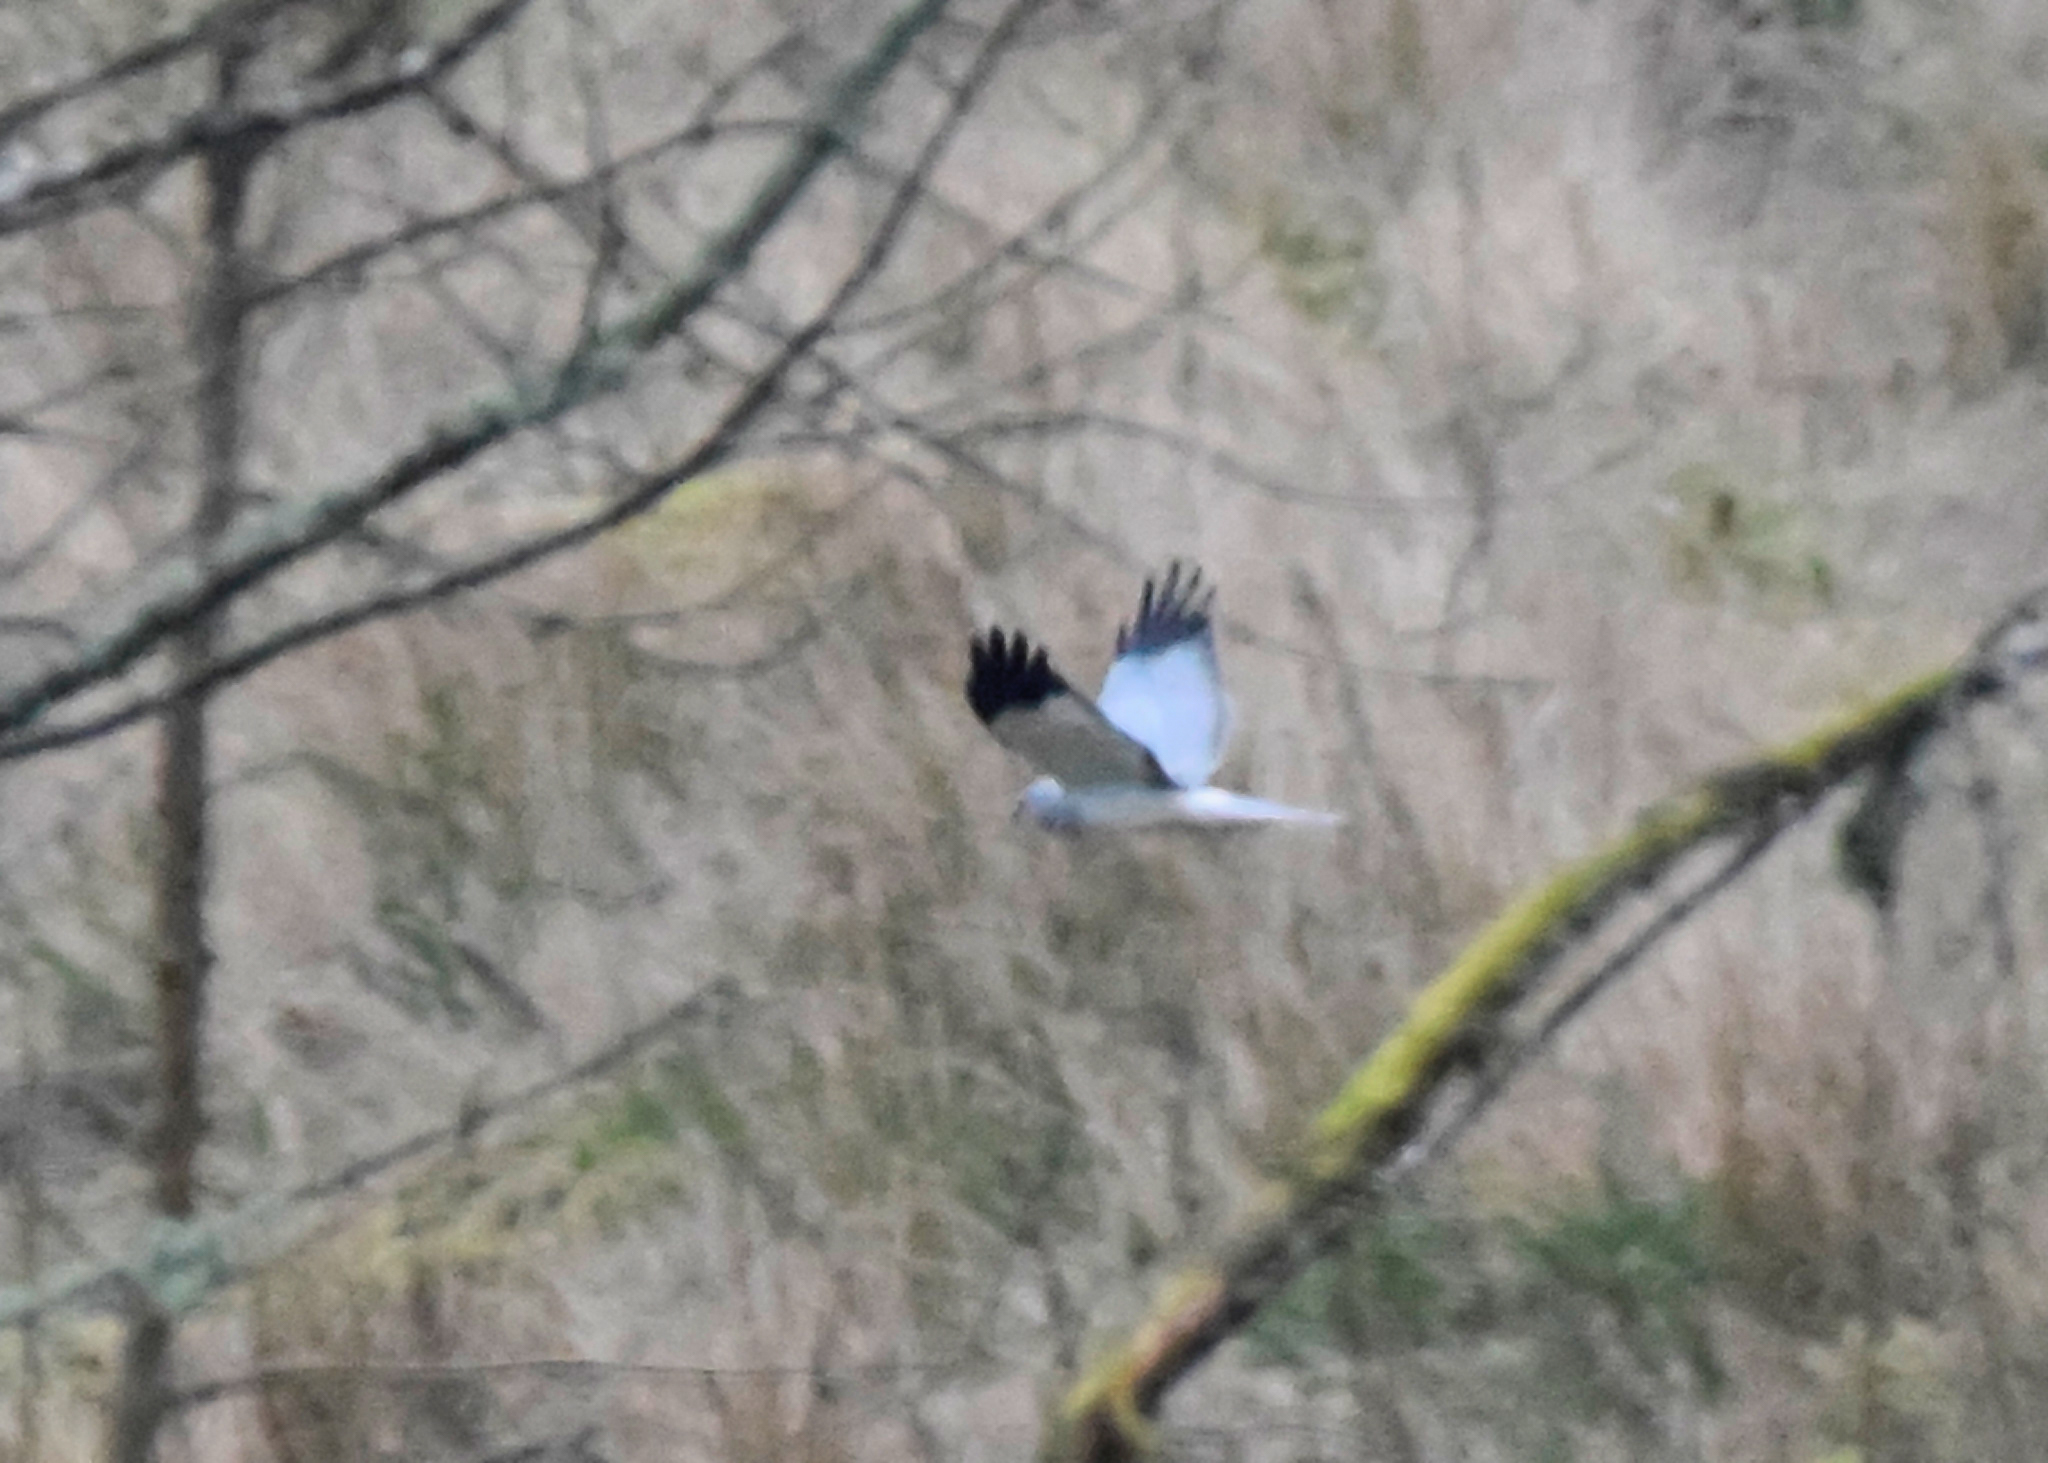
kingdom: Animalia
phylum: Chordata
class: Aves
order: Accipitriformes
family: Accipitridae
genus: Circus
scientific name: Circus cyaneus
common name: Hen harrier
